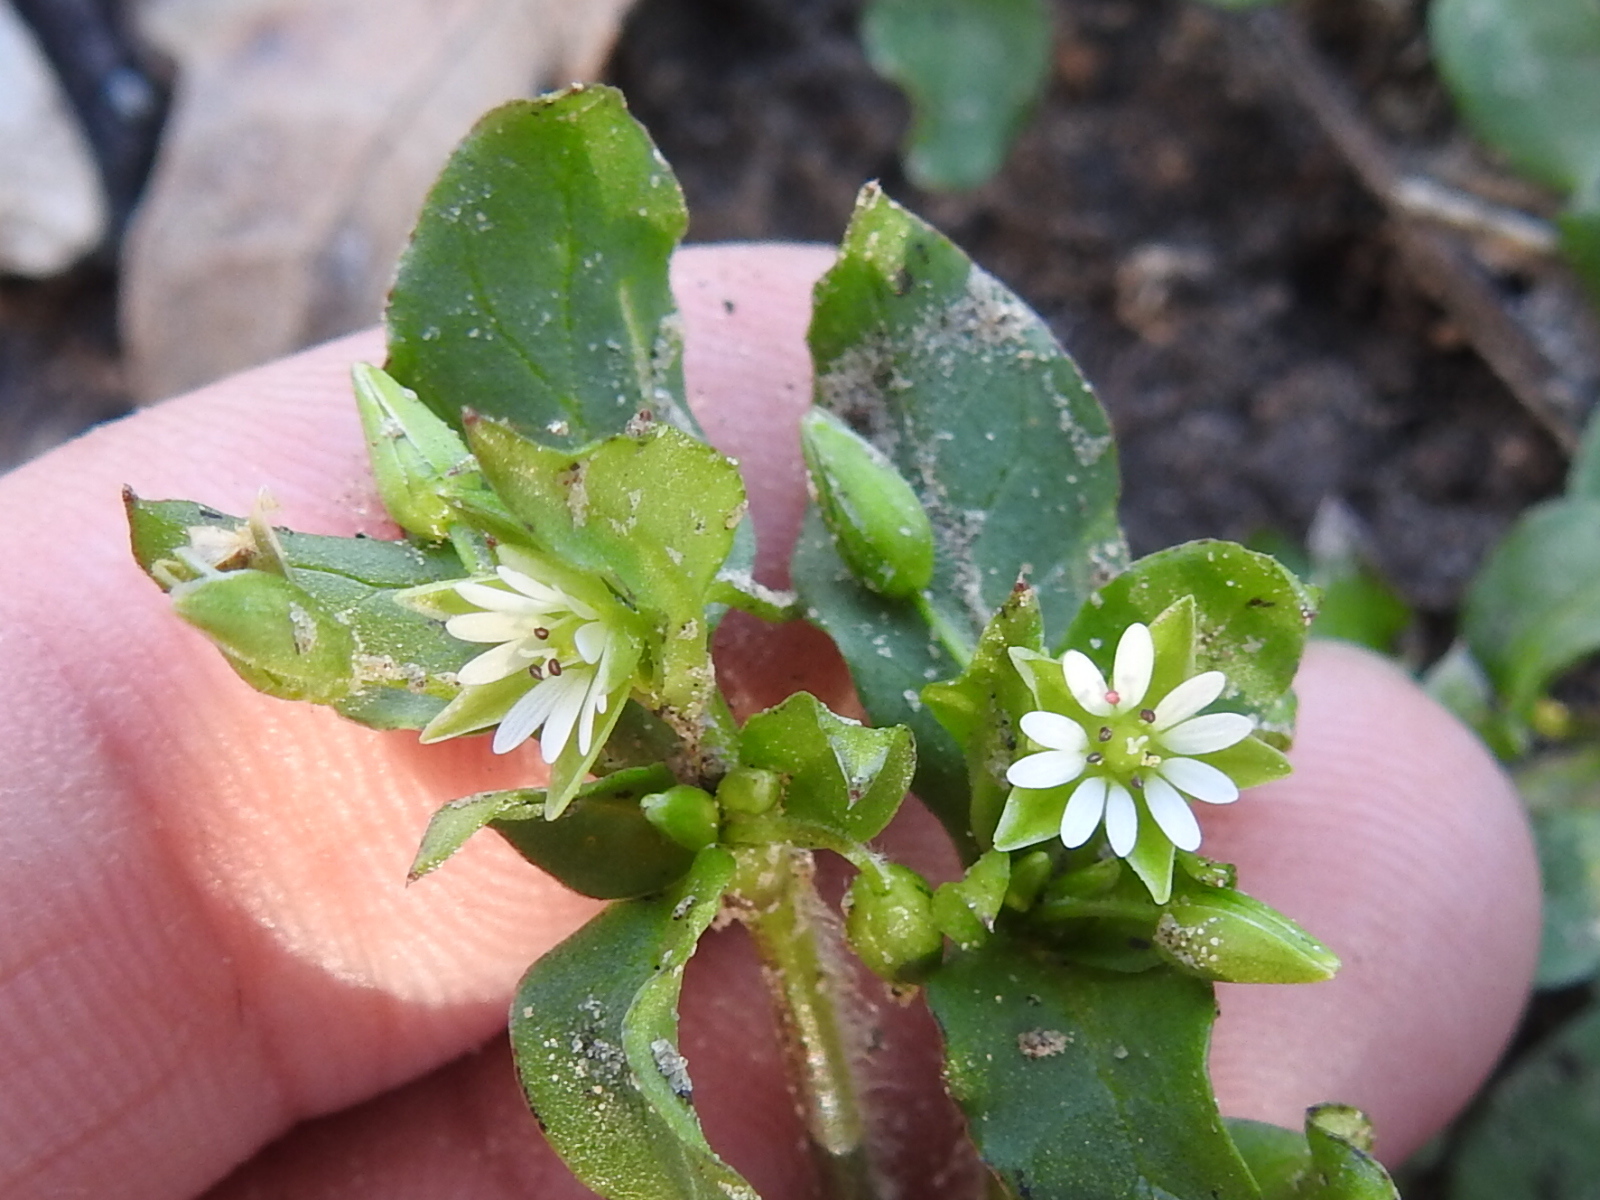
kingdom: Plantae
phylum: Tracheophyta
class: Magnoliopsida
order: Caryophyllales
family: Caryophyllaceae
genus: Stellaria
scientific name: Stellaria media
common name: Common chickweed
